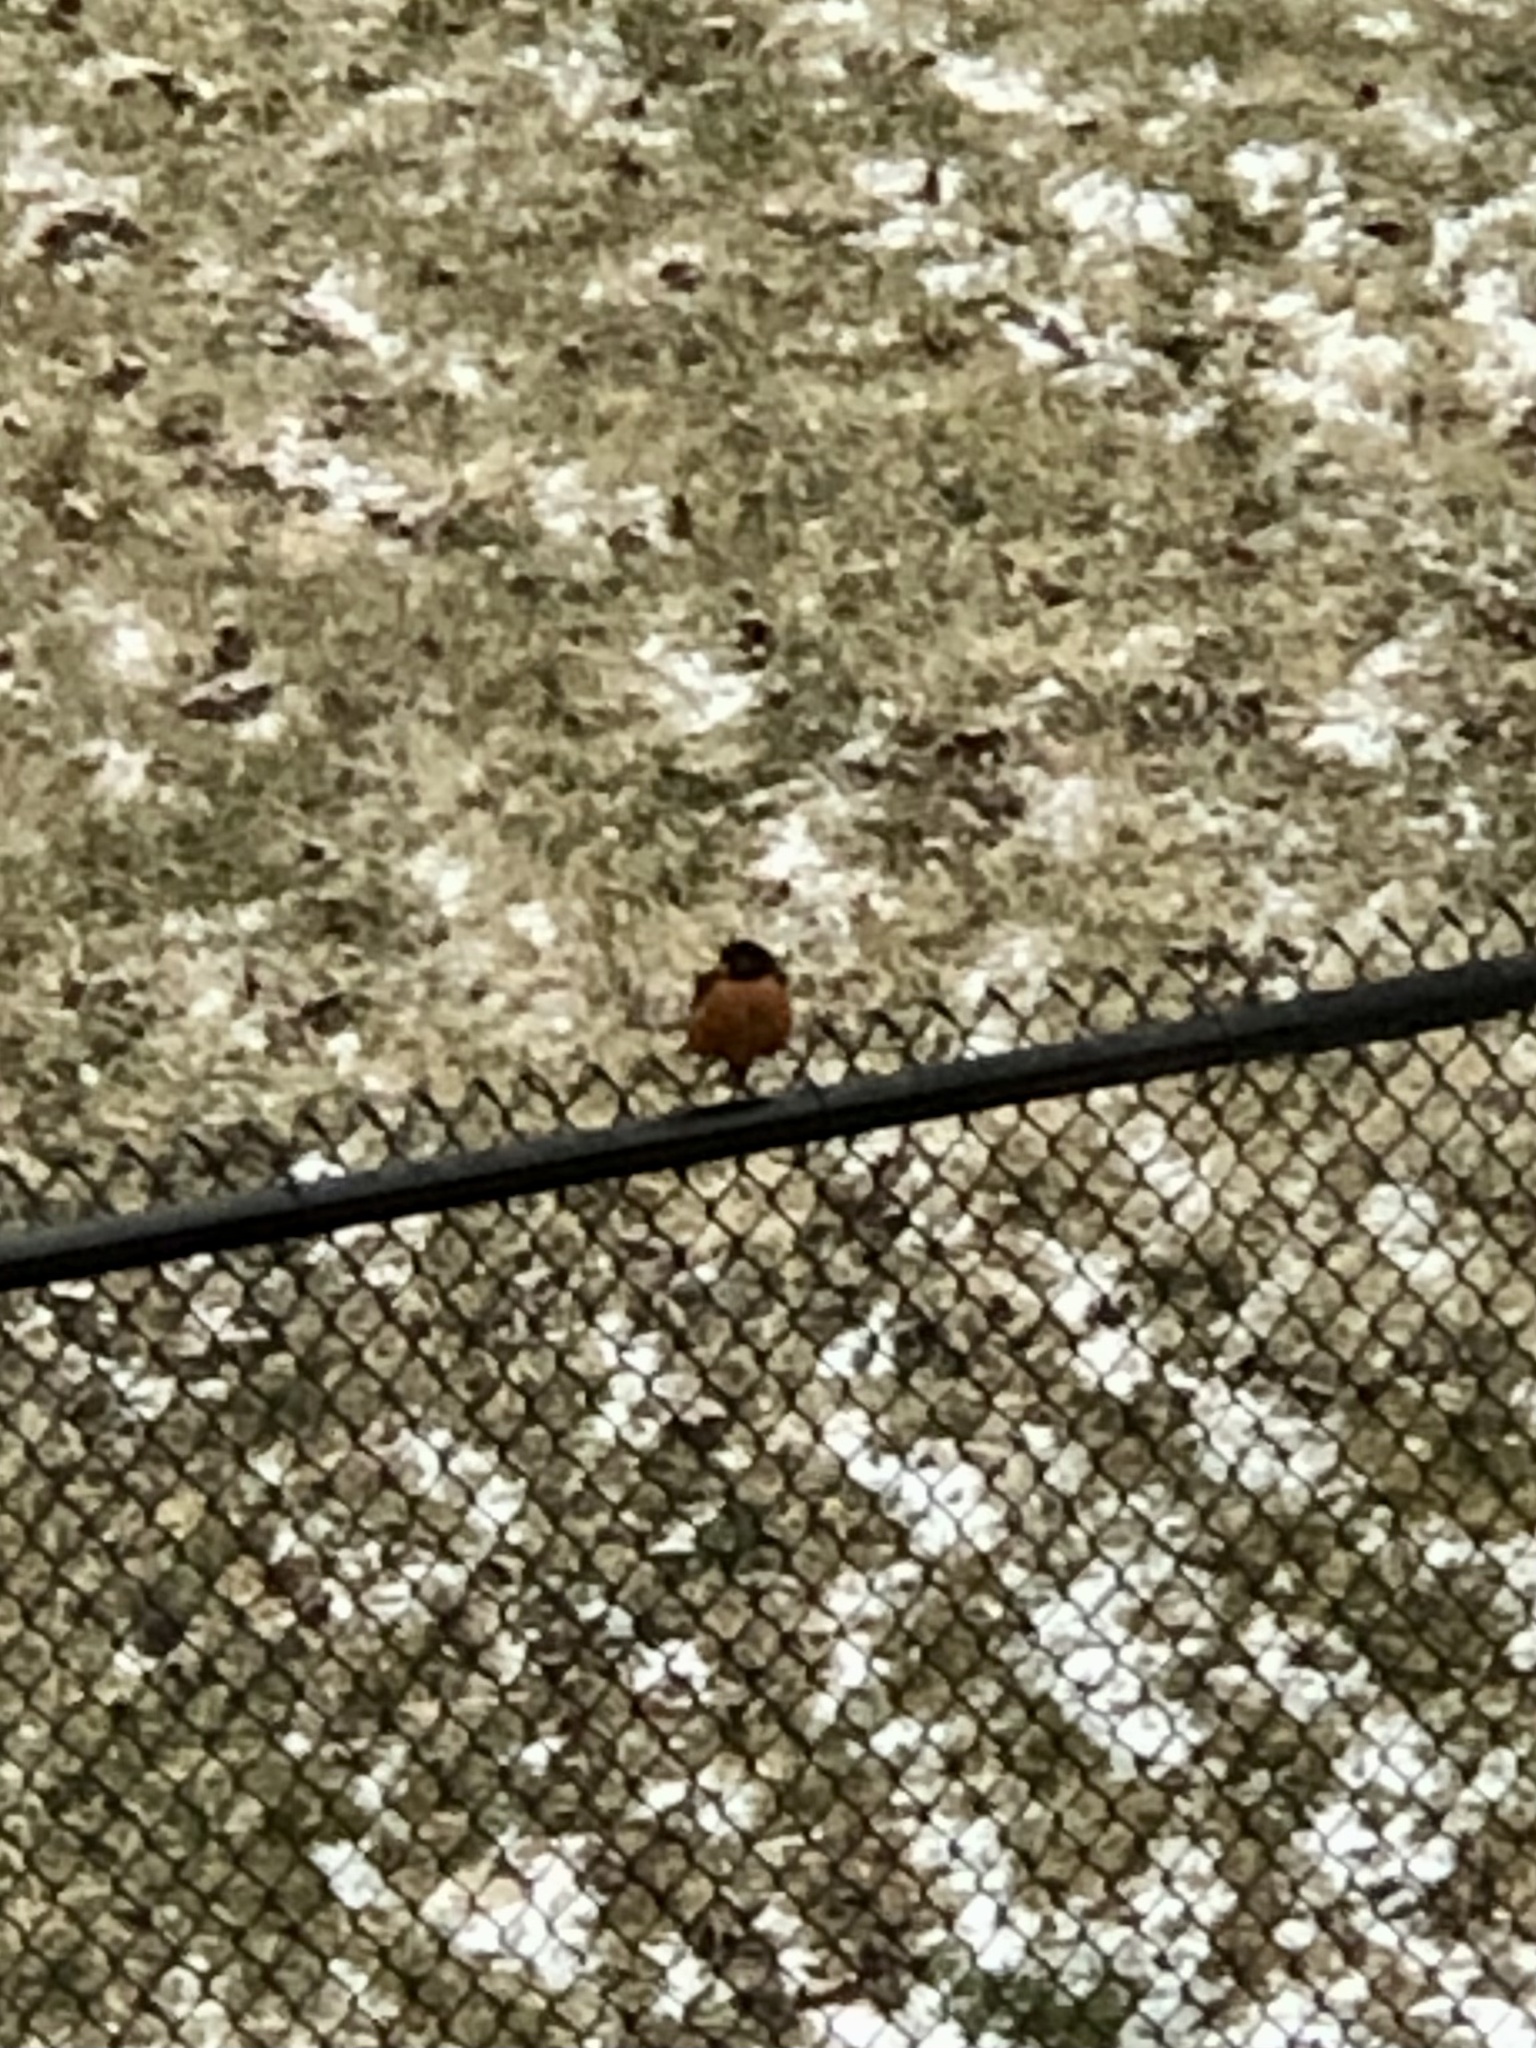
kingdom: Animalia
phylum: Chordata
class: Aves
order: Passeriformes
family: Turdidae
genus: Turdus
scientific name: Turdus migratorius
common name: American robin
